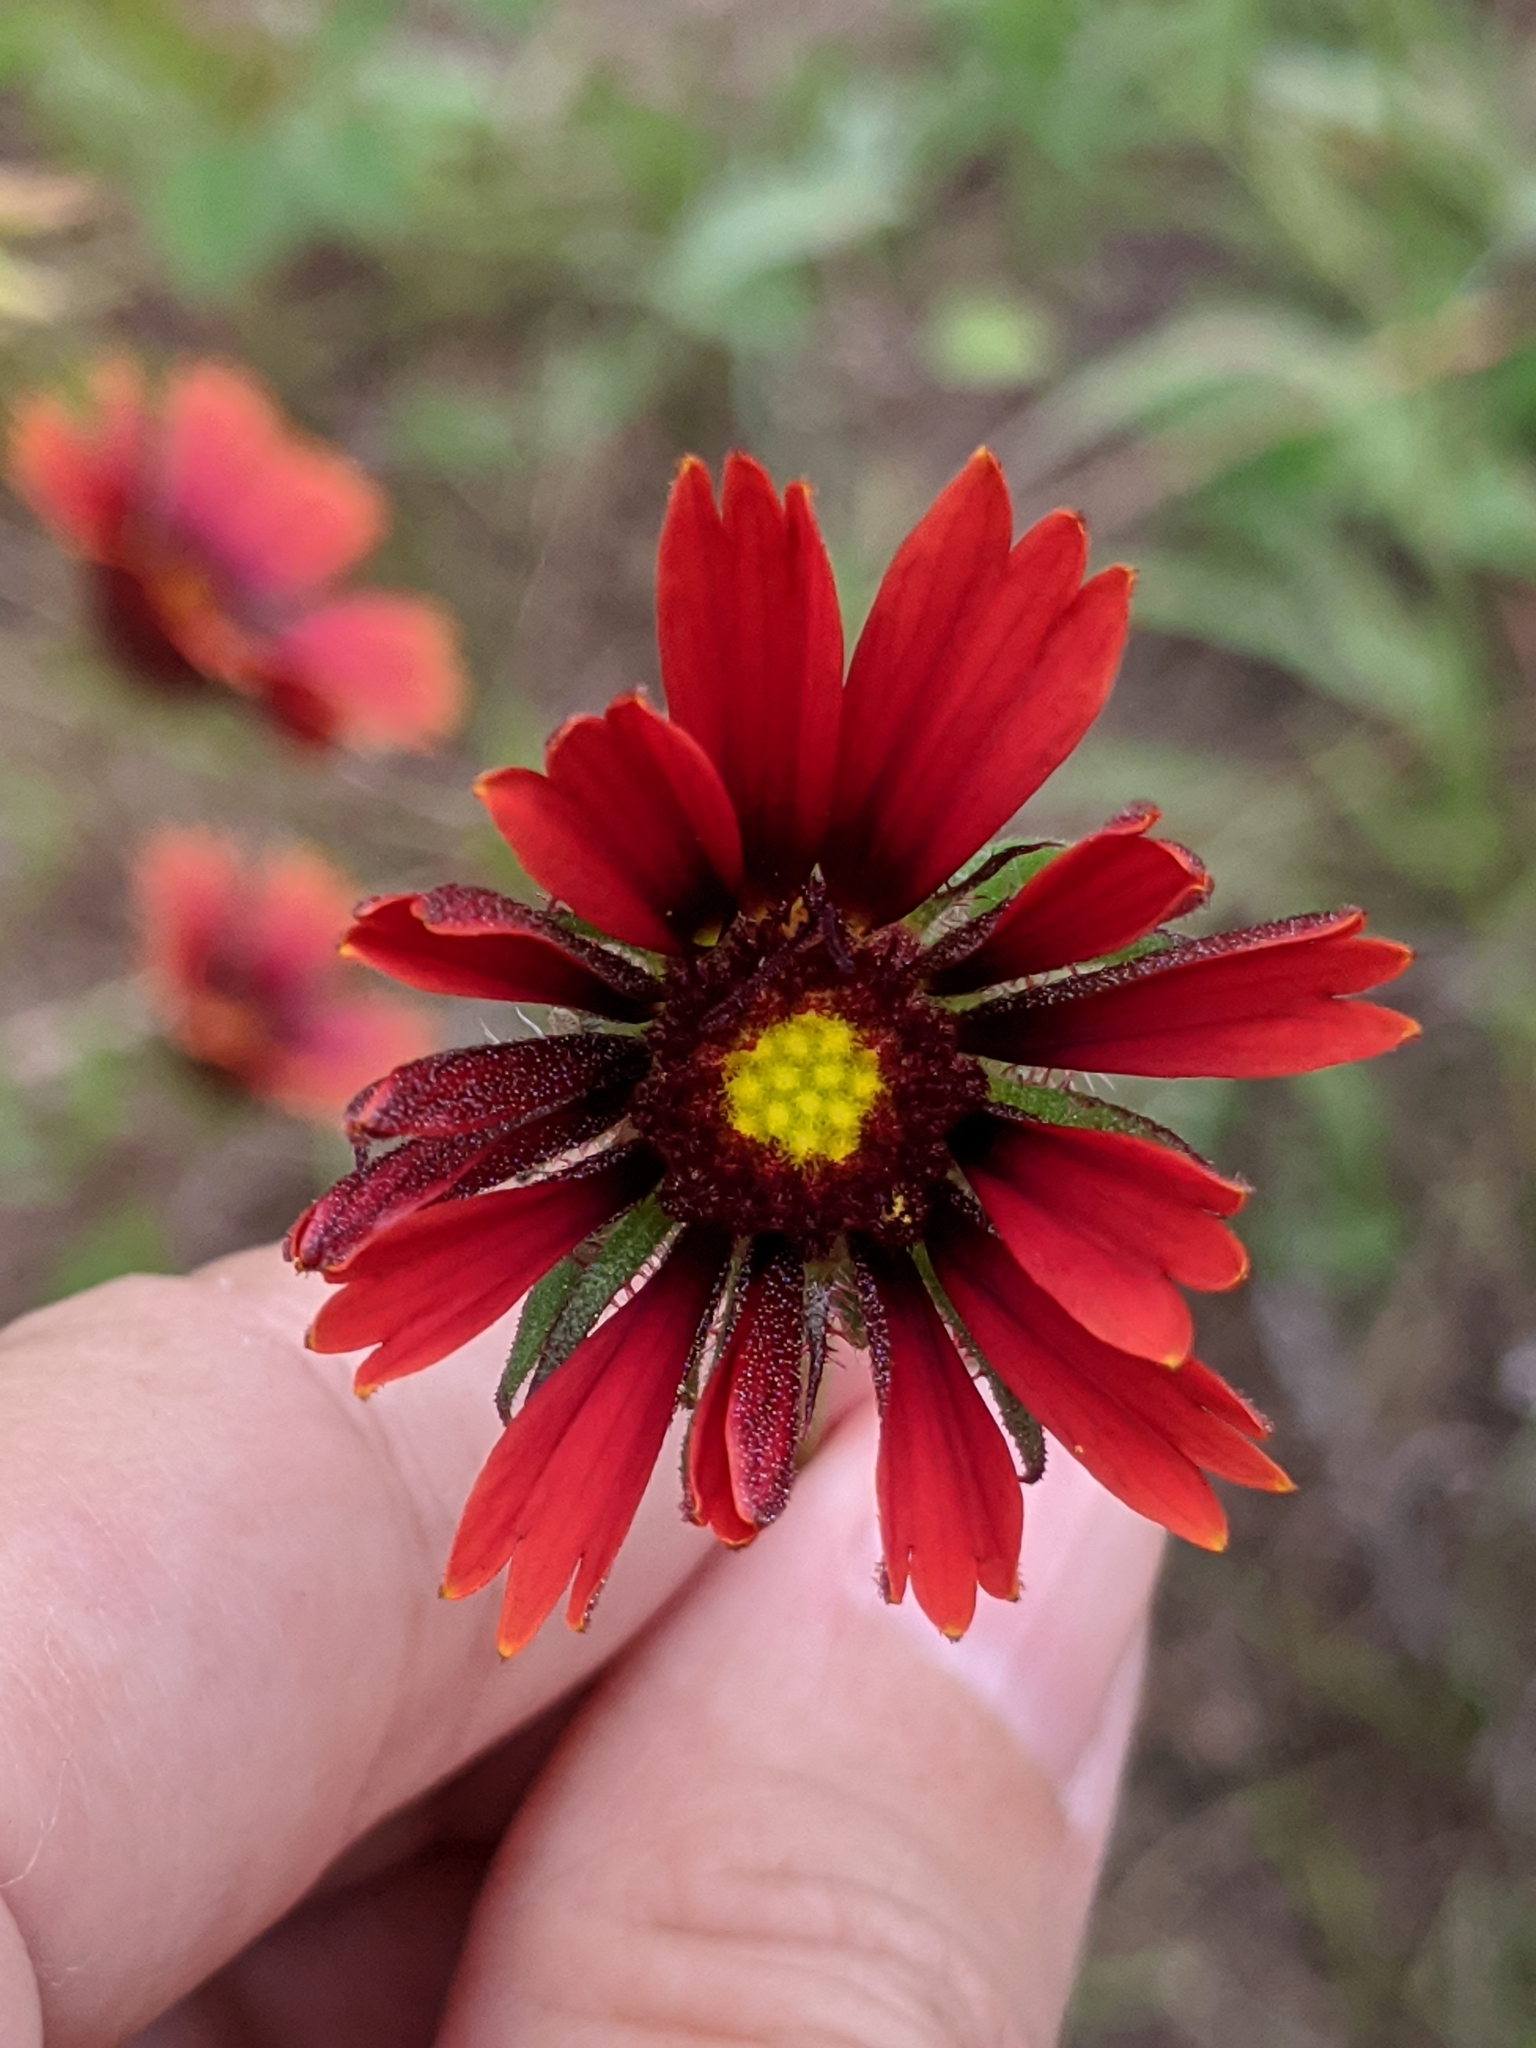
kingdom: Plantae
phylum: Tracheophyta
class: Magnoliopsida
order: Asterales
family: Asteraceae
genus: Gaillardia
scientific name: Gaillardia amblyodon
